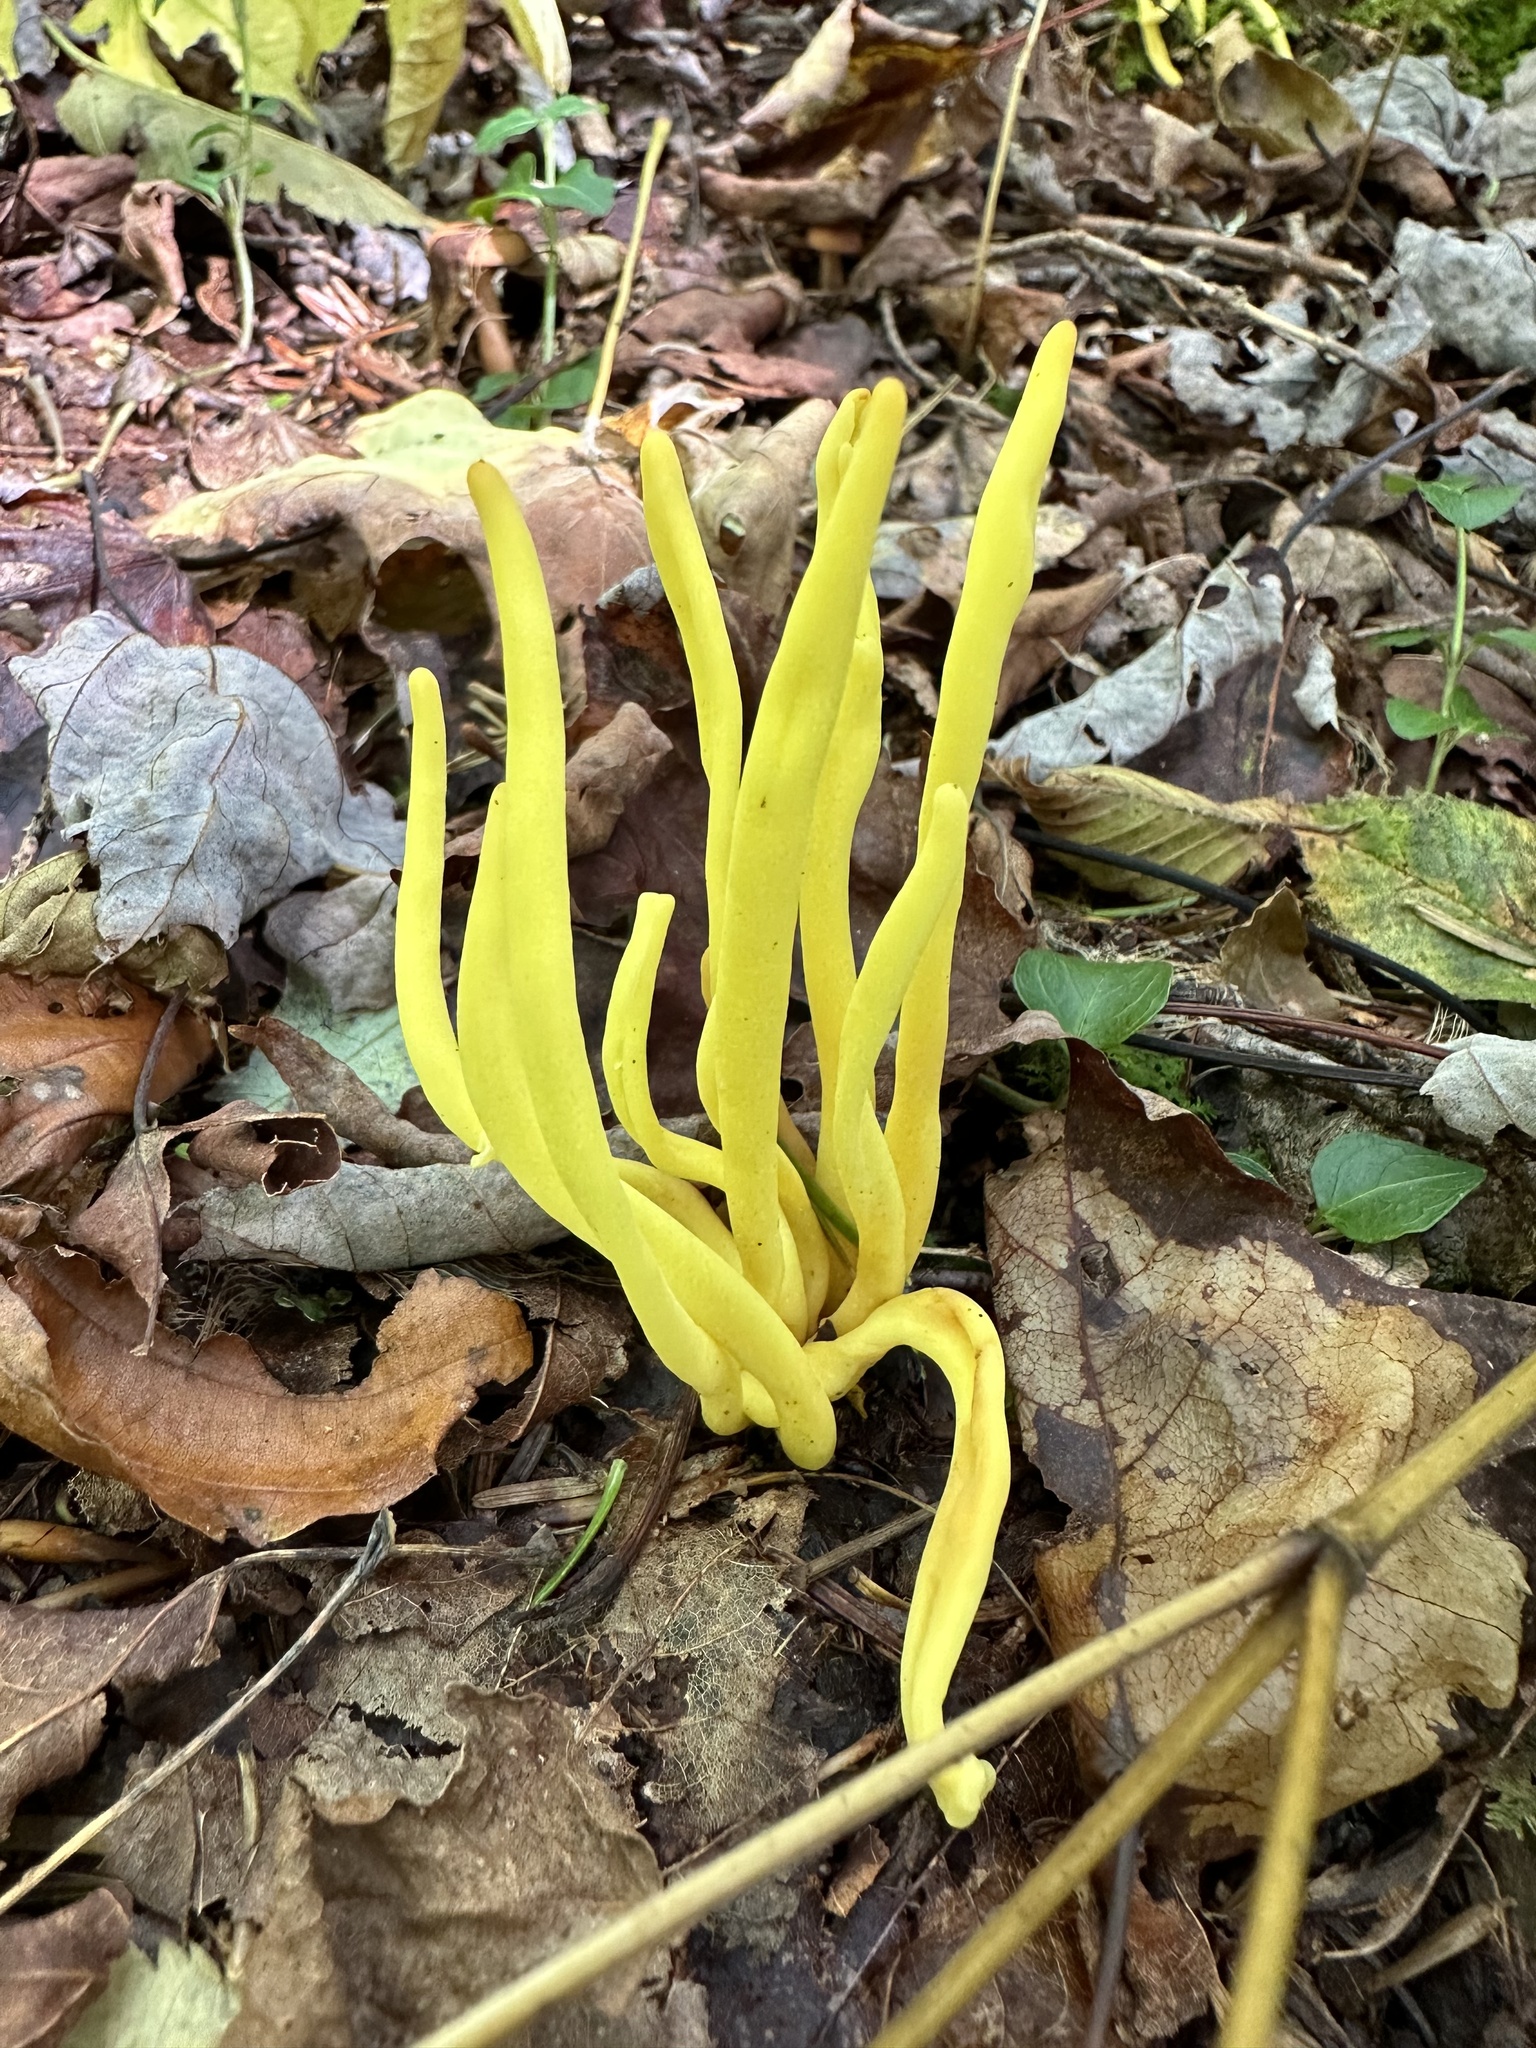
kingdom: Fungi
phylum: Basidiomycota
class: Agaricomycetes
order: Agaricales
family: Clavariaceae
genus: Clavulinopsis
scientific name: Clavulinopsis fusiformis
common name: Golden spindles
